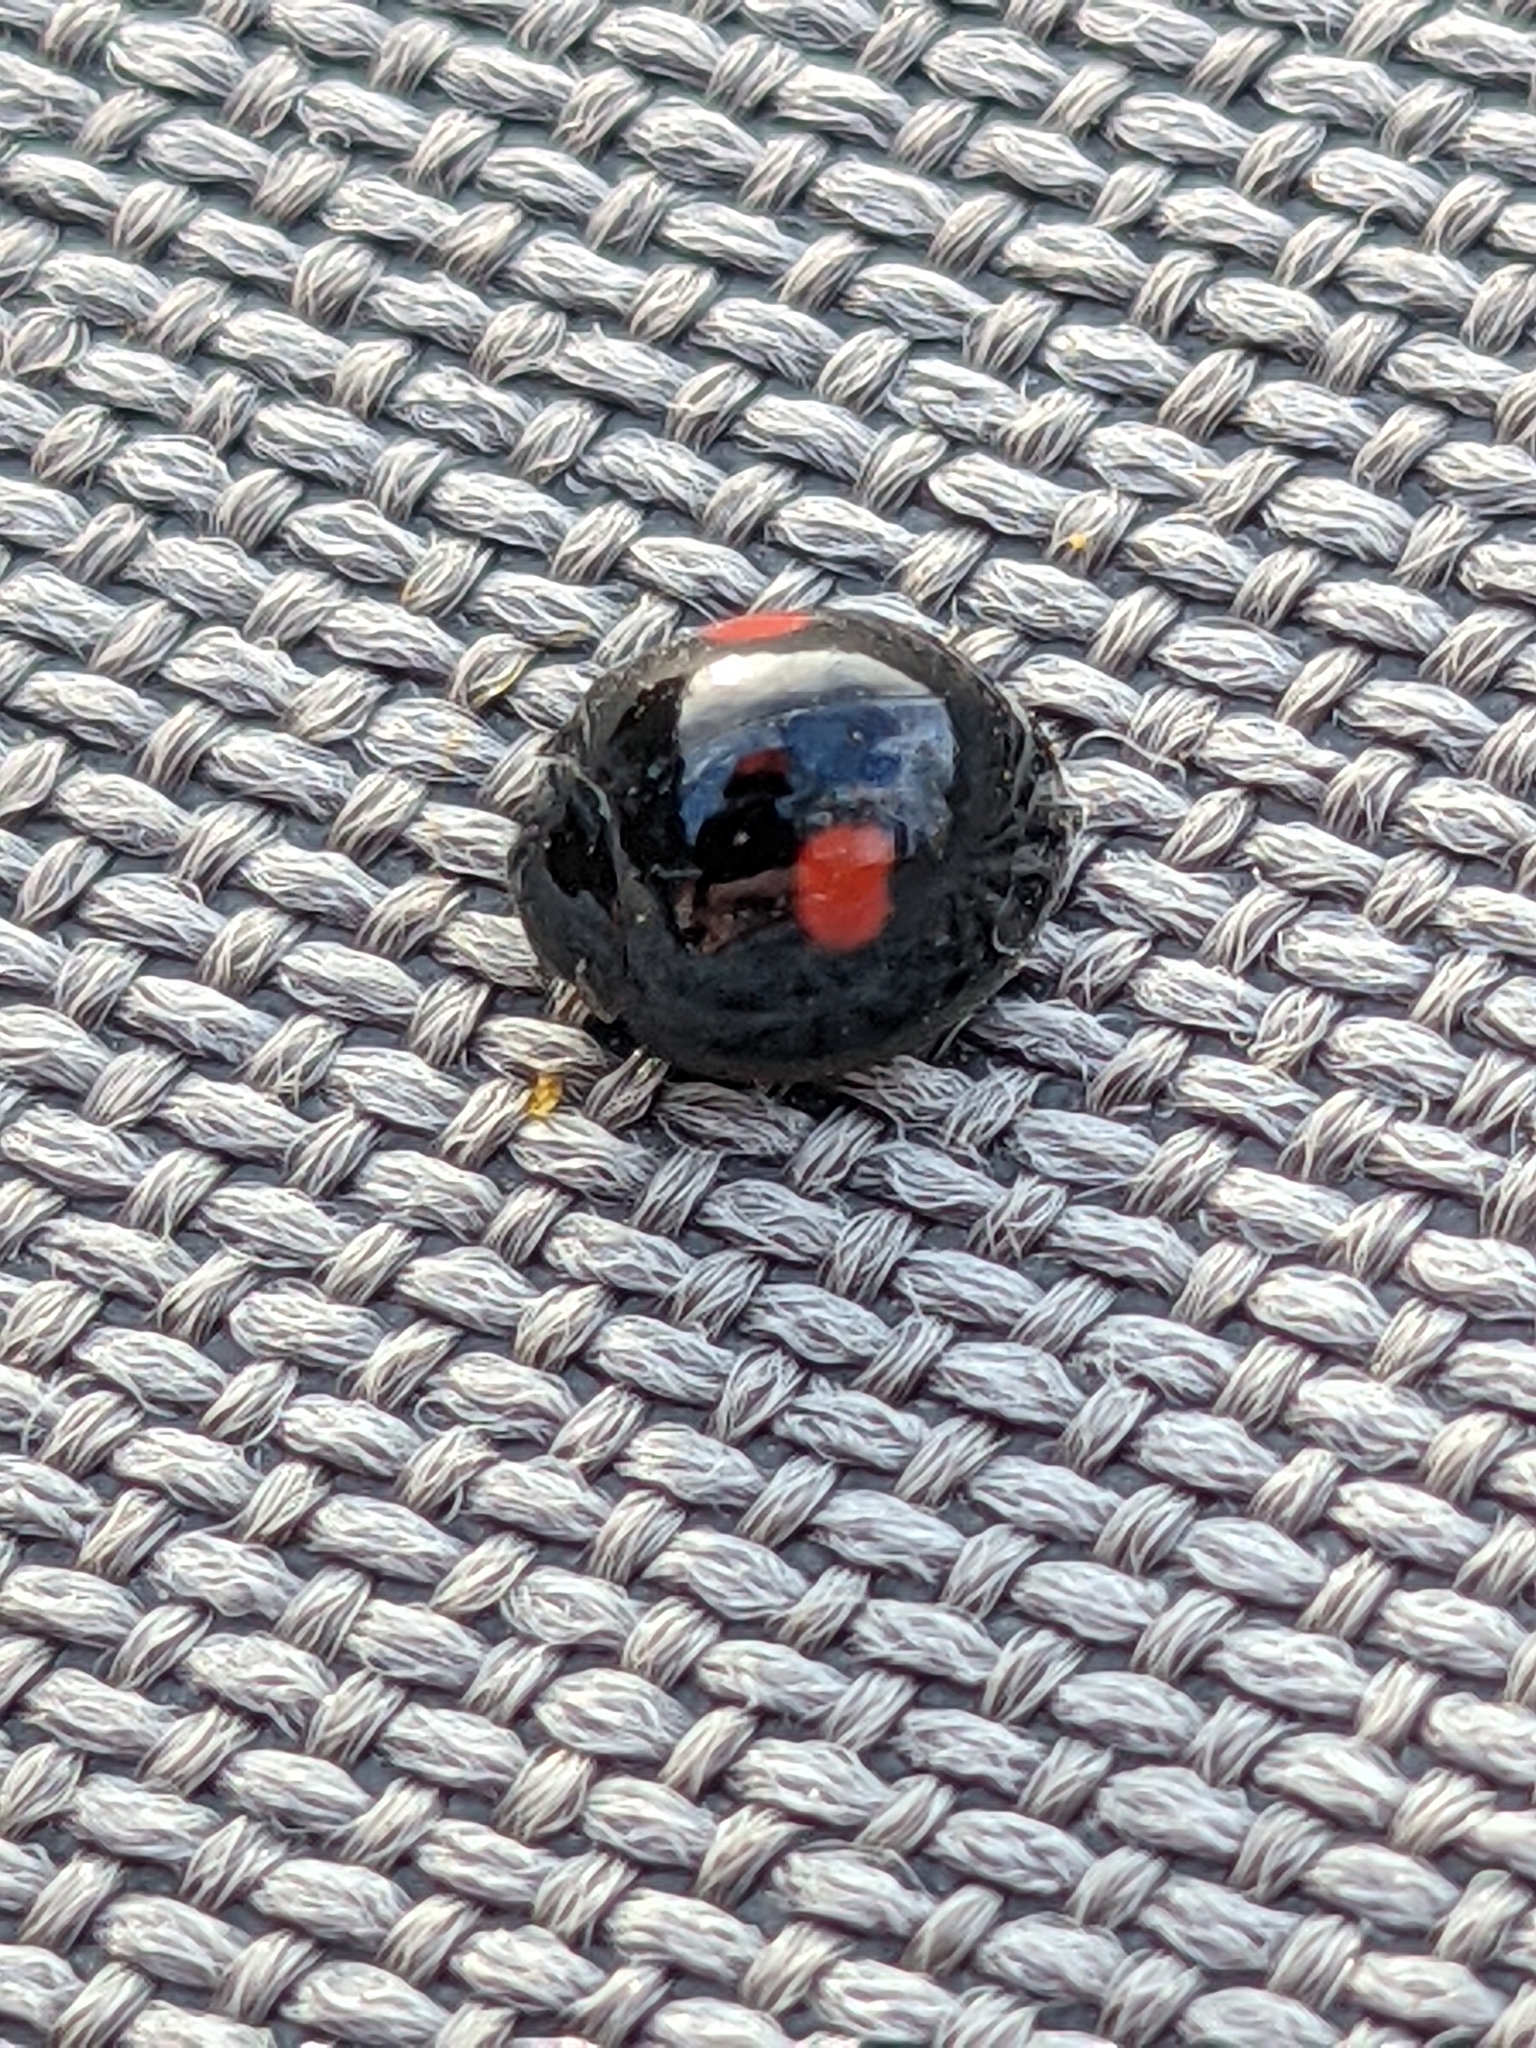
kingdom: Animalia
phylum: Arthropoda
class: Insecta
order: Coleoptera
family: Coccinellidae
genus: Chilocorus
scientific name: Chilocorus stigma
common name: Twicestabbed lady beetle
